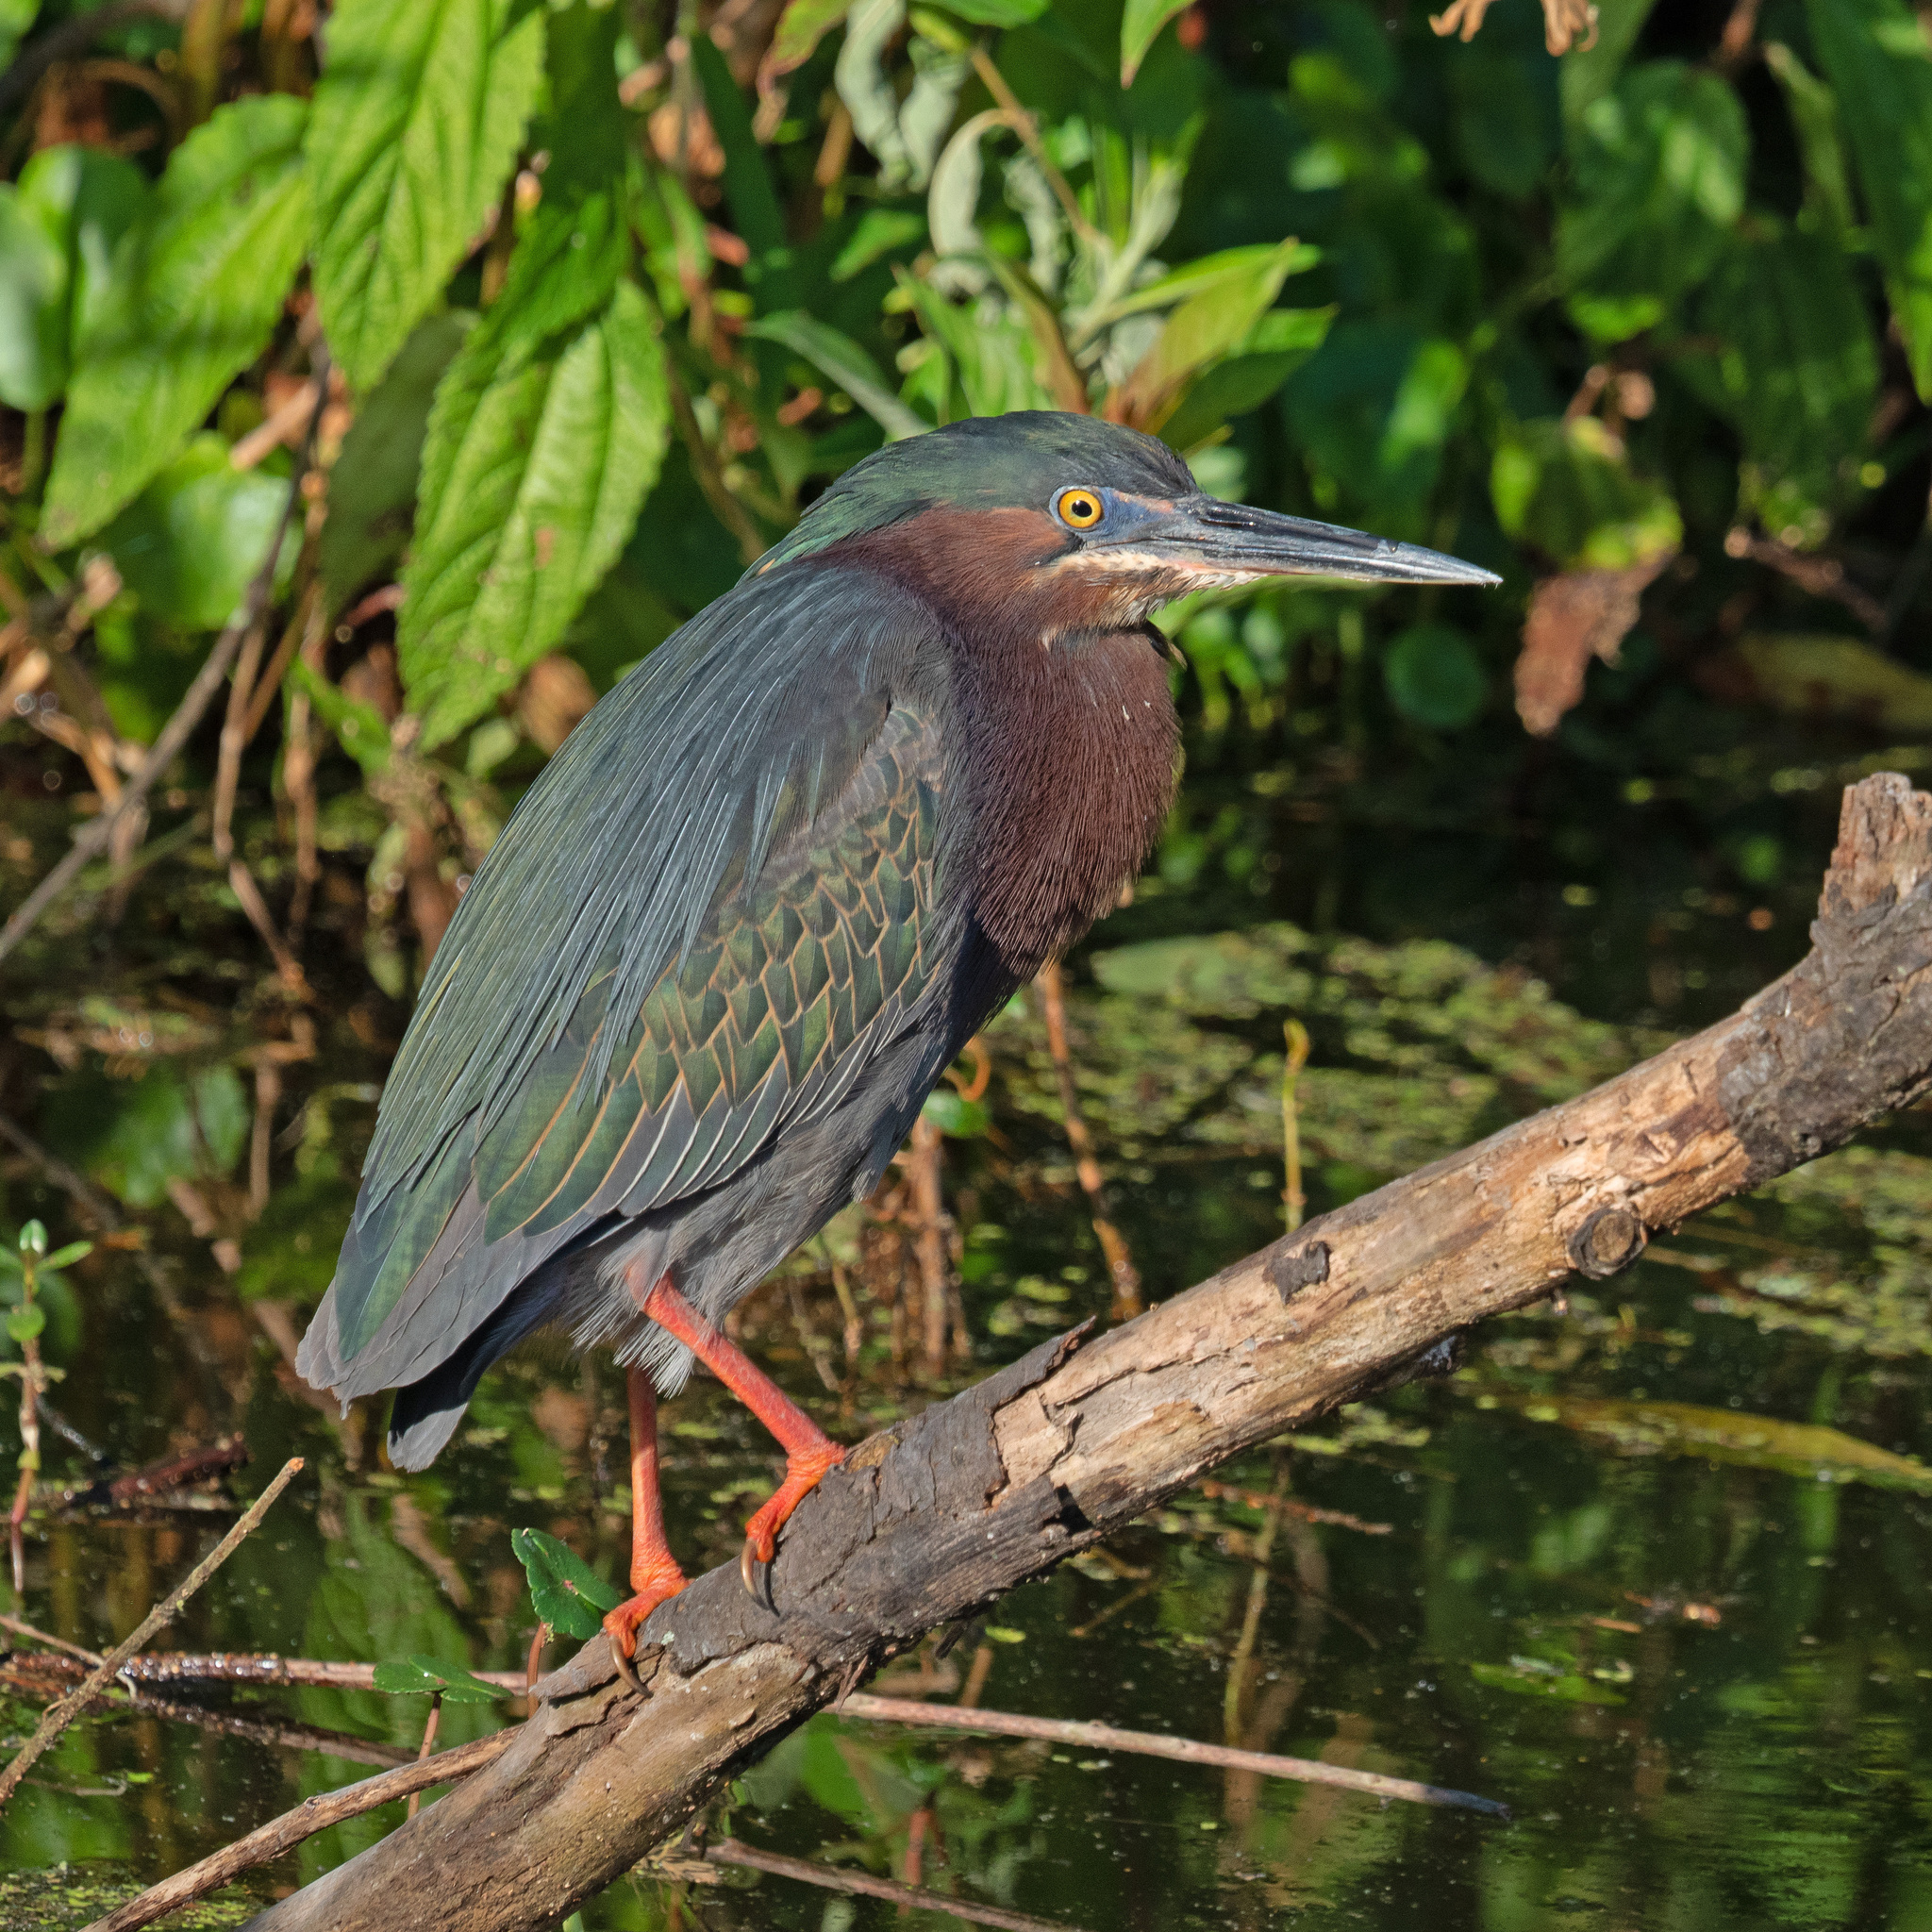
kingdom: Animalia
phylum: Chordata
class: Aves
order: Pelecaniformes
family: Ardeidae
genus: Butorides
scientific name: Butorides virescens
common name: Green heron
